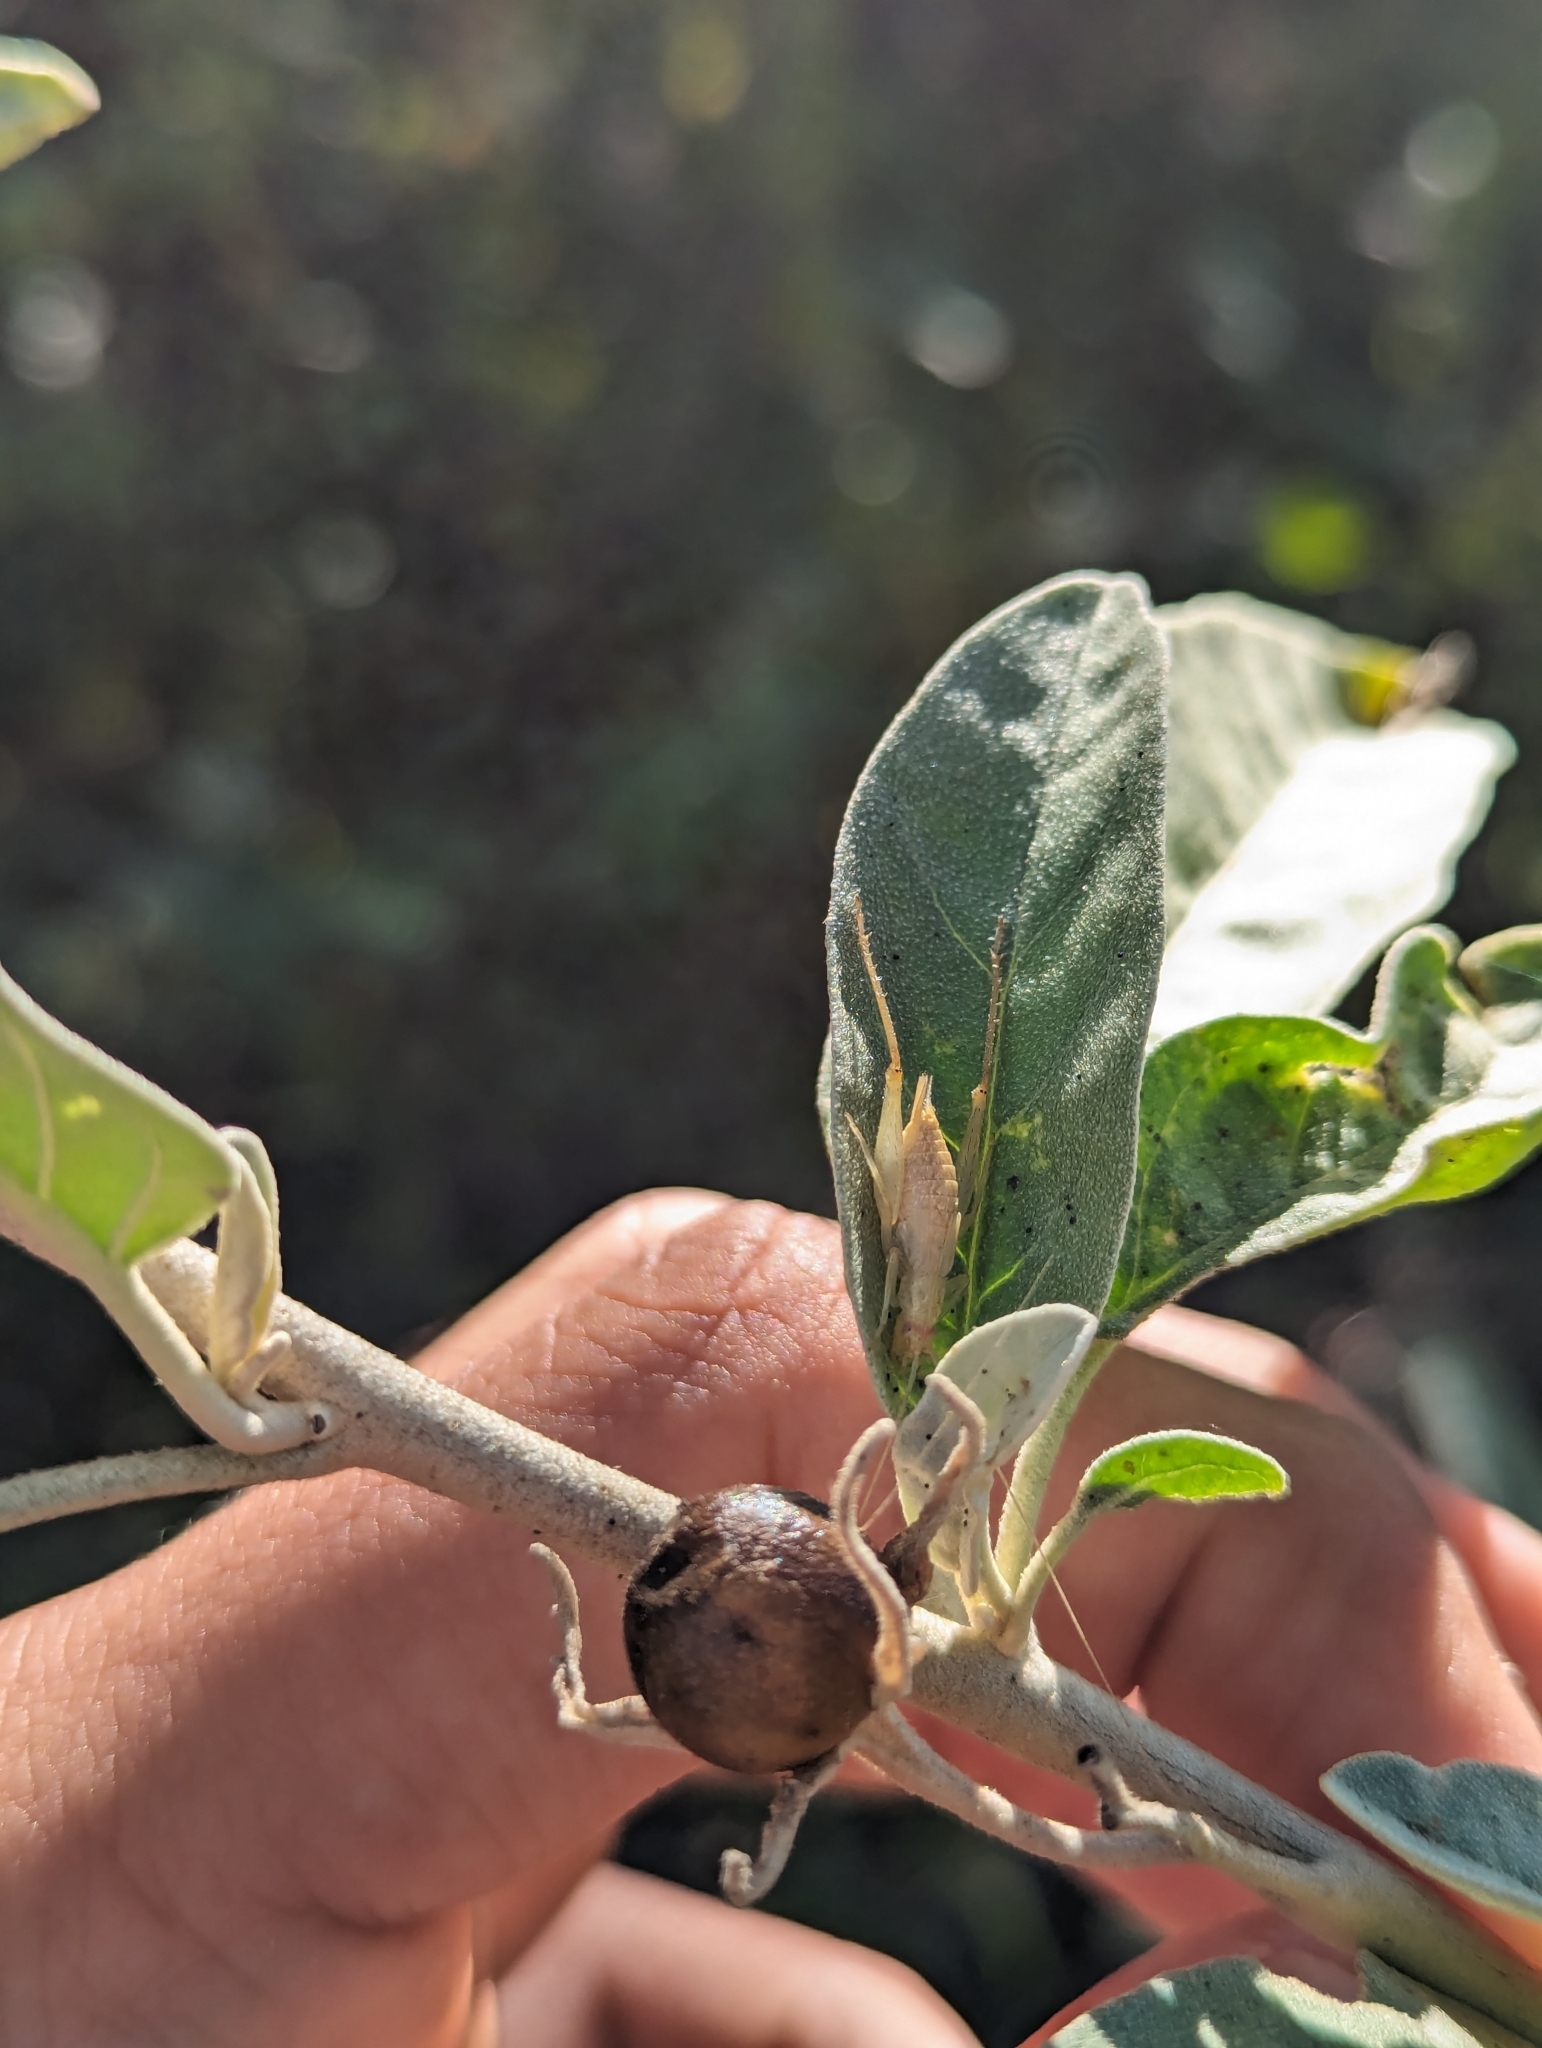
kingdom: Plantae
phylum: Tracheophyta
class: Magnoliopsida
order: Solanales
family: Solanaceae
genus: Solanum
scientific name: Solanum hindsianum
